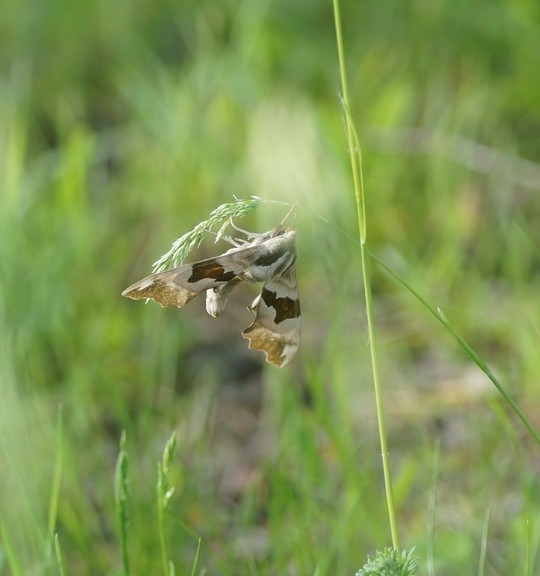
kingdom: Animalia
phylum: Arthropoda
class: Insecta
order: Lepidoptera
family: Sphingidae
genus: Mimas
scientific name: Mimas tiliae
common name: Lime hawk-moth
